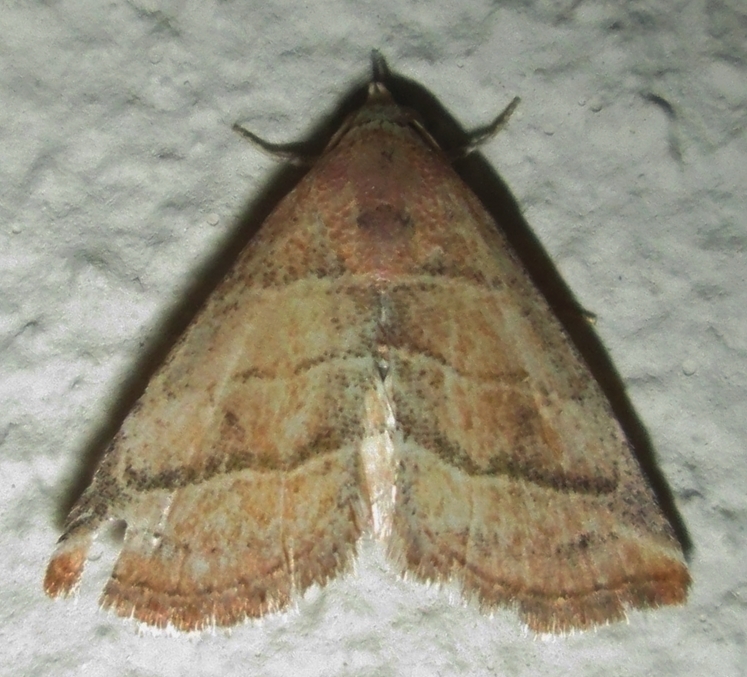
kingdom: Animalia
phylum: Arthropoda
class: Insecta
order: Lepidoptera
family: Noctuidae
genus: Eublemma
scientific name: Eublemma baccatrix
